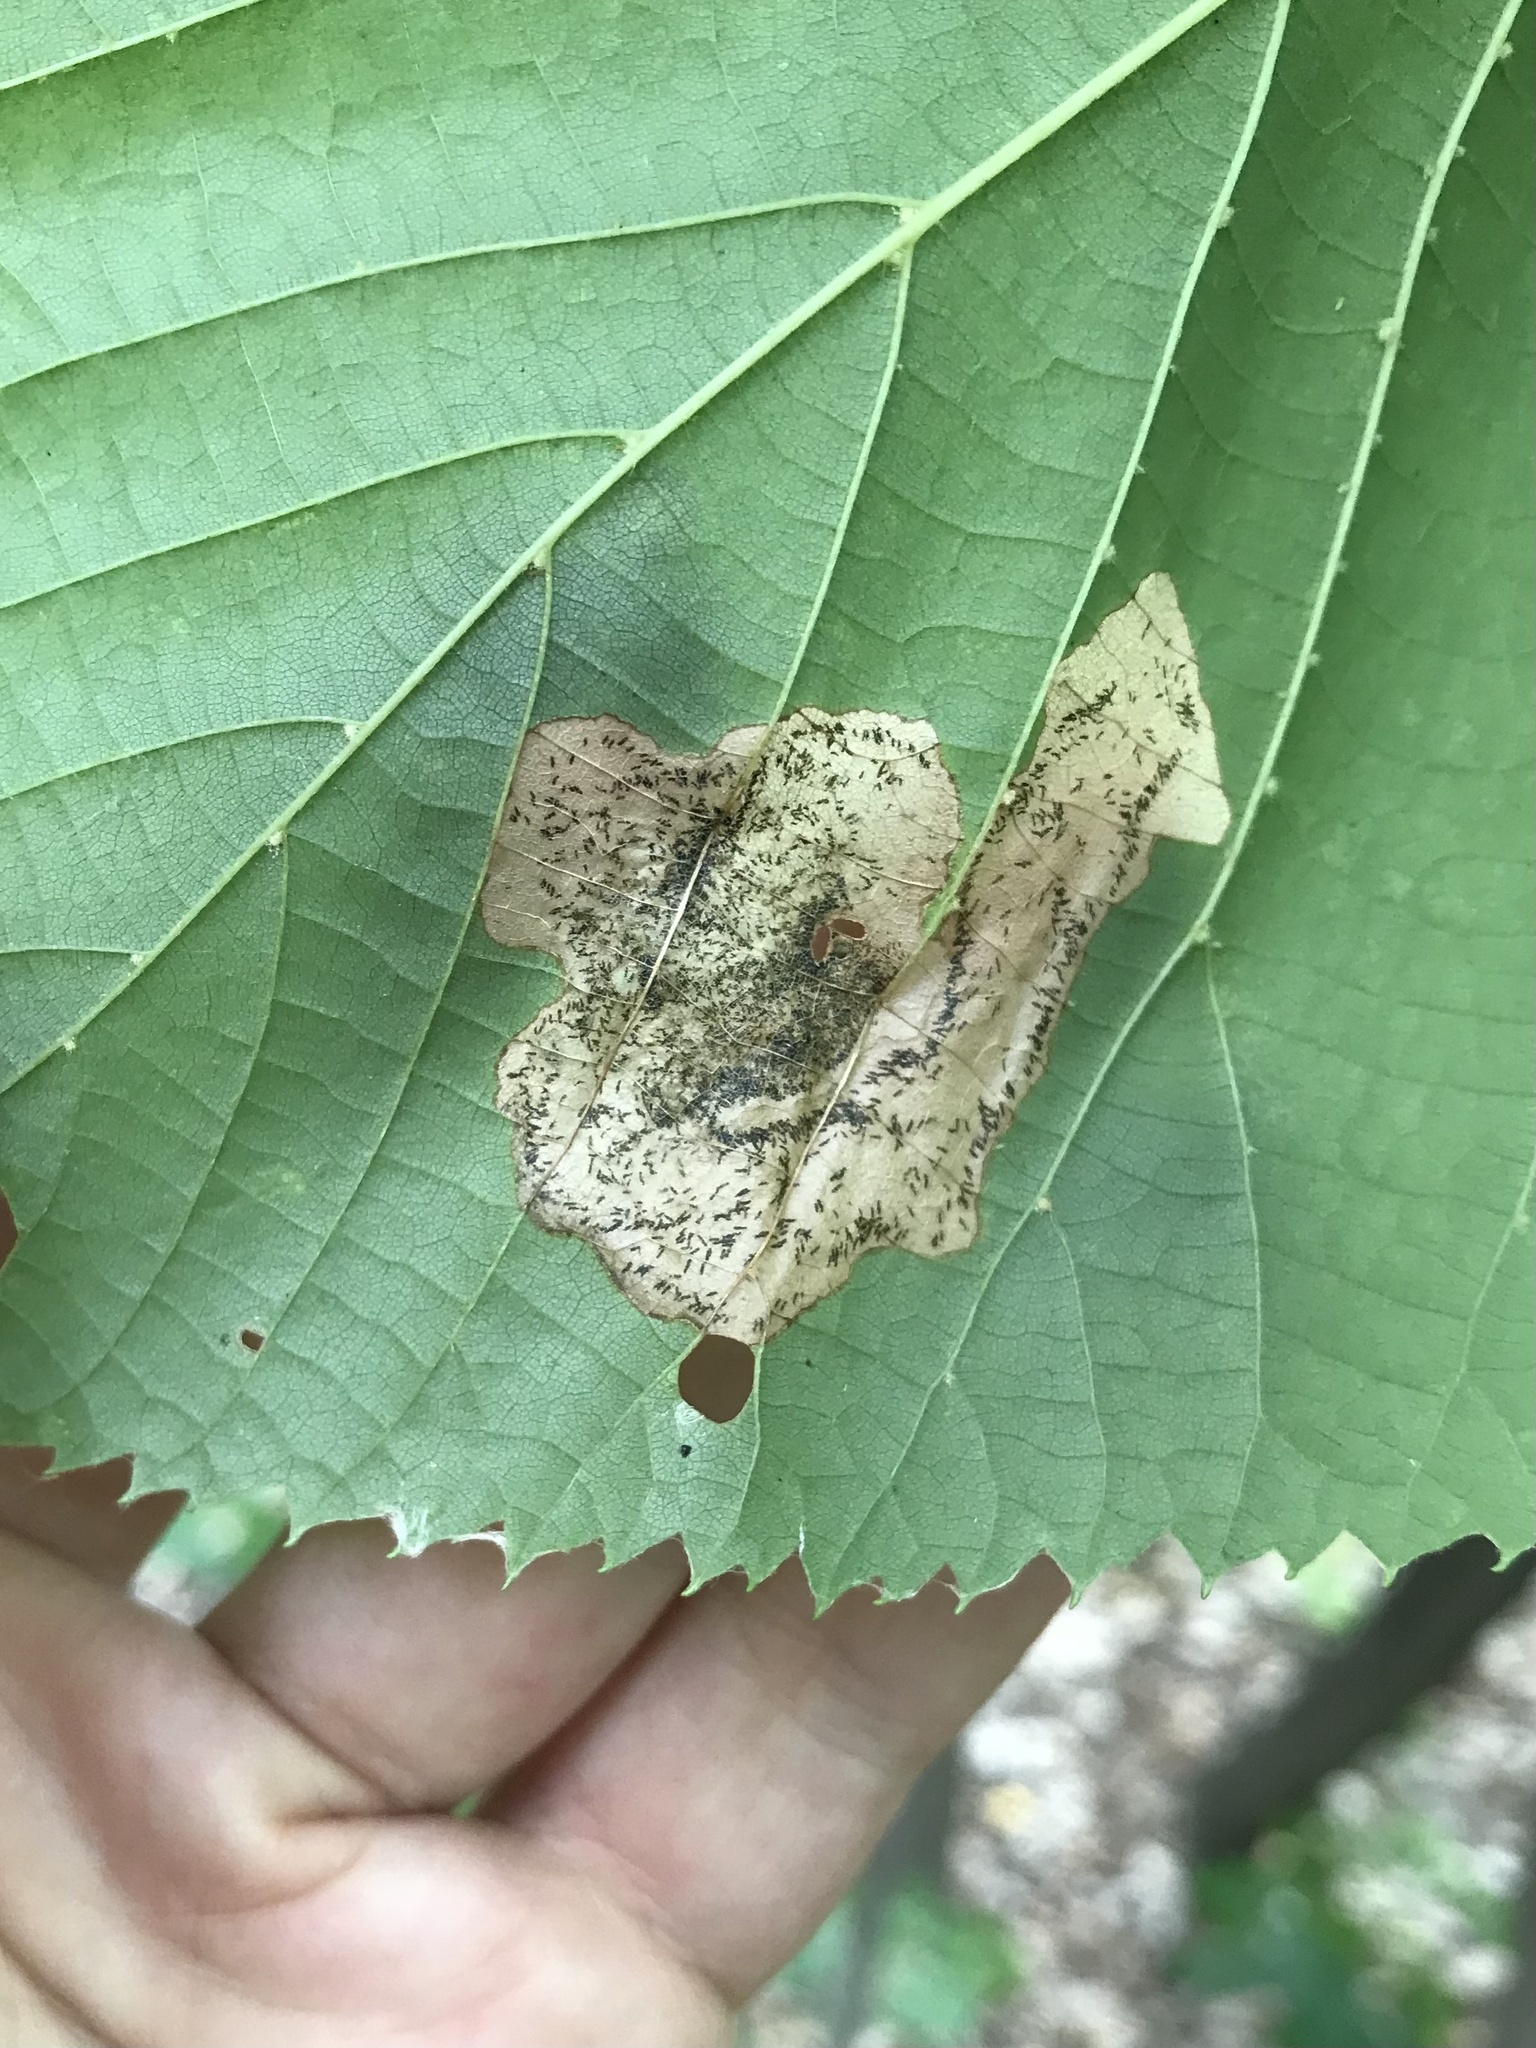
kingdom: Animalia
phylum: Arthropoda
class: Insecta
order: Coleoptera
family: Chrysomelidae
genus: Baliosus
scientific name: Baliosus nervosus
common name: Basswood leaf miner
